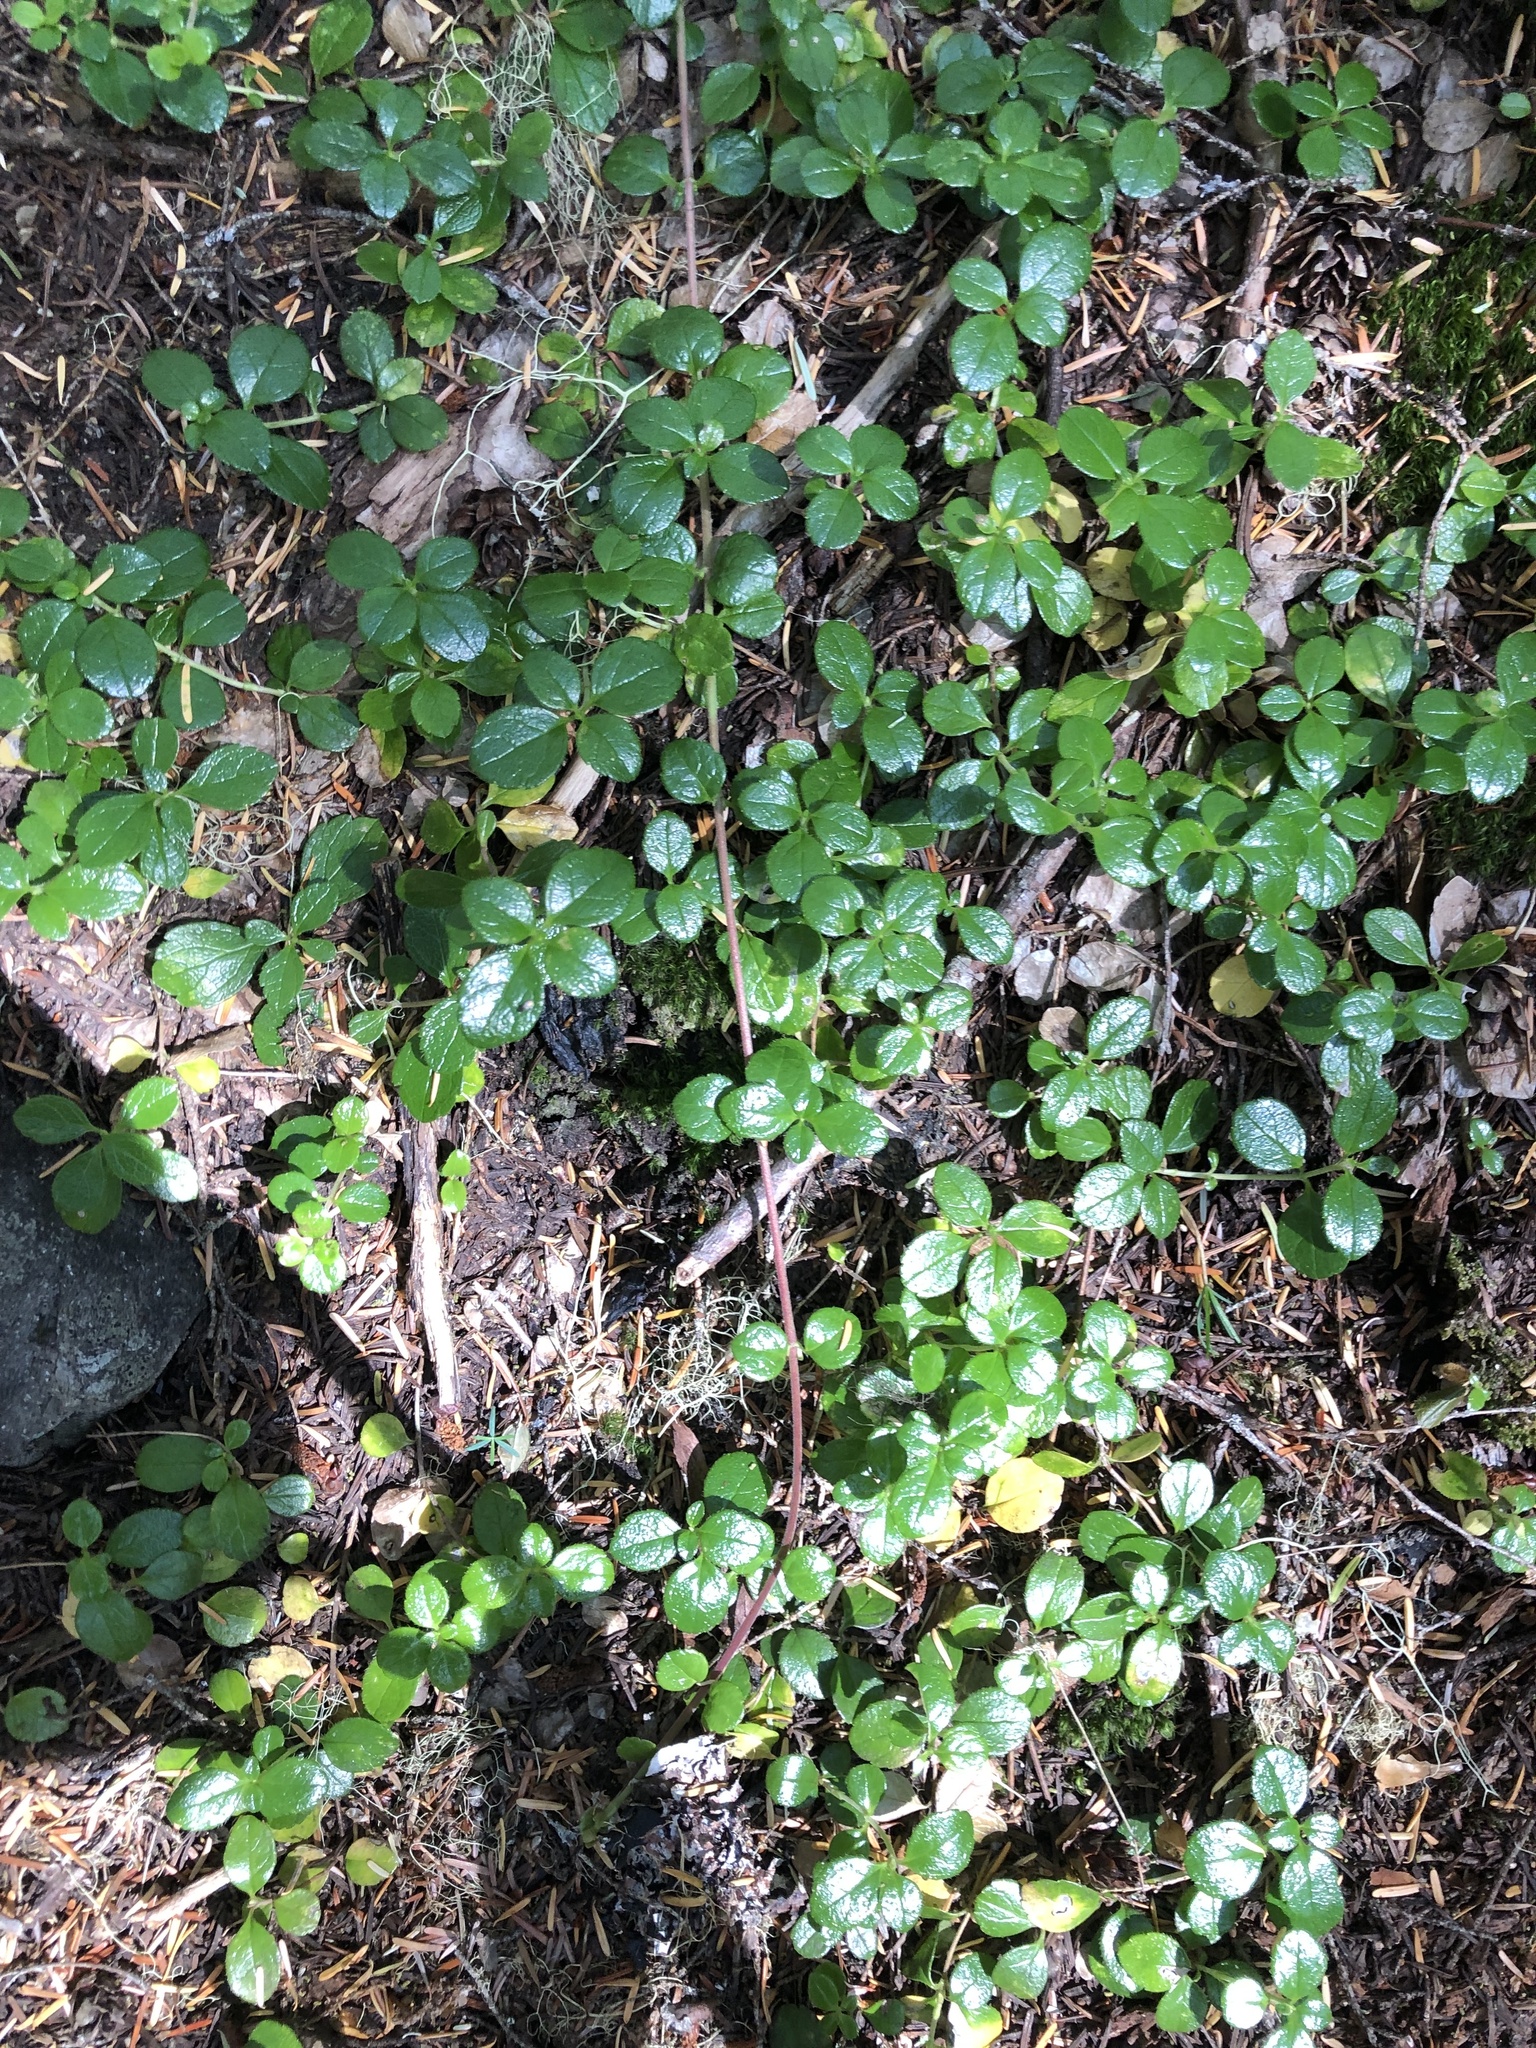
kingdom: Plantae
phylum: Tracheophyta
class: Magnoliopsida
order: Dipsacales
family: Caprifoliaceae
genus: Linnaea
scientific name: Linnaea borealis
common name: Twinflower
